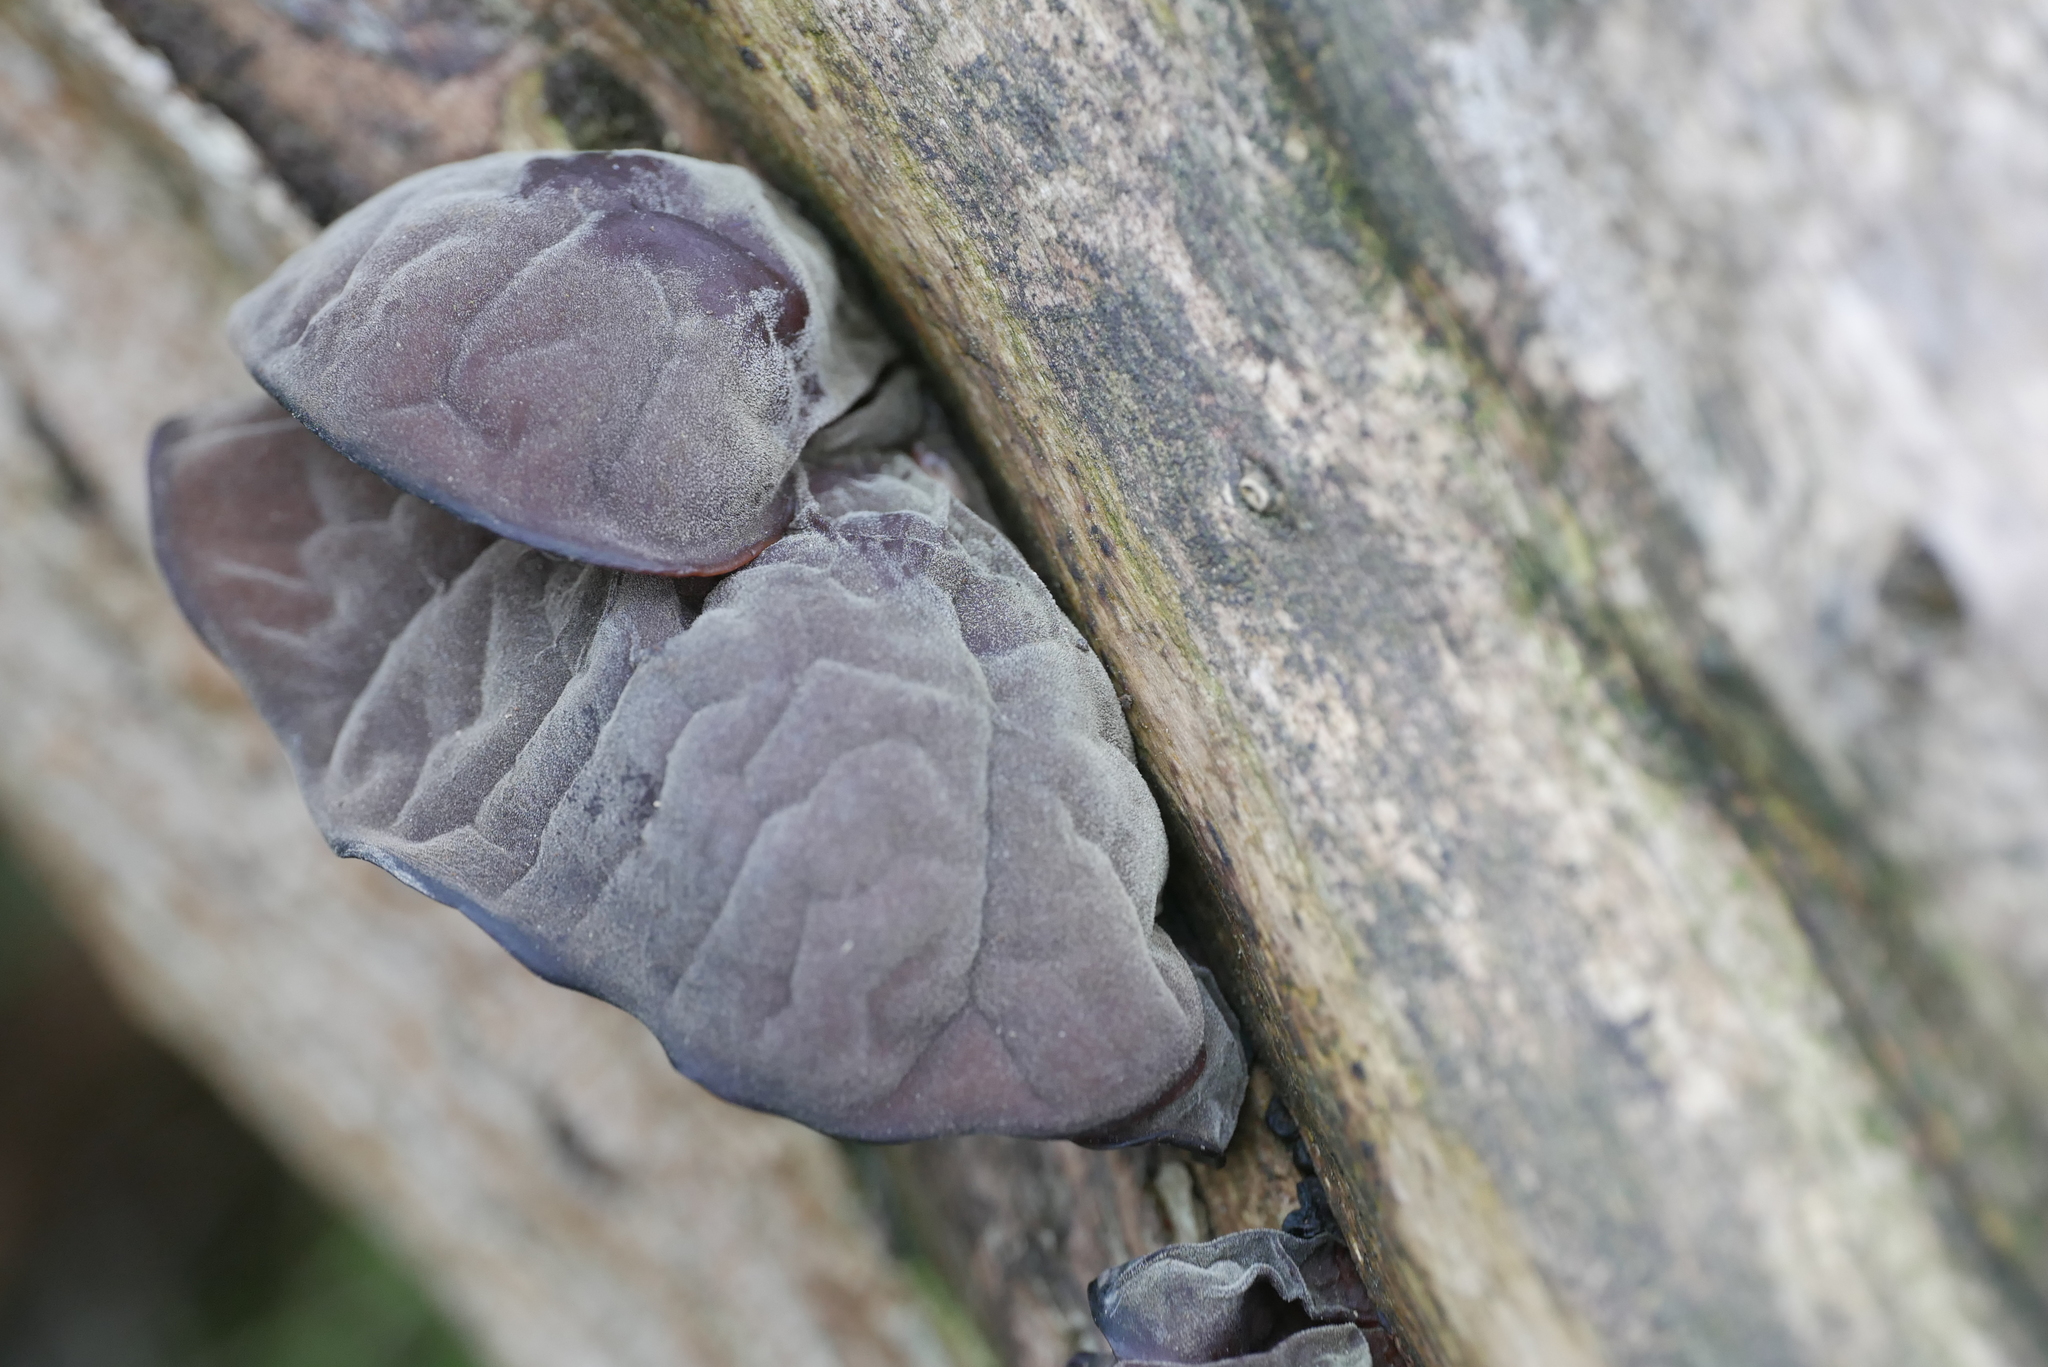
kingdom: Fungi
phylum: Basidiomycota
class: Agaricomycetes
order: Auriculariales
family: Auriculariaceae
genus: Auricularia
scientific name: Auricularia auricula-judae
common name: Jelly ear
